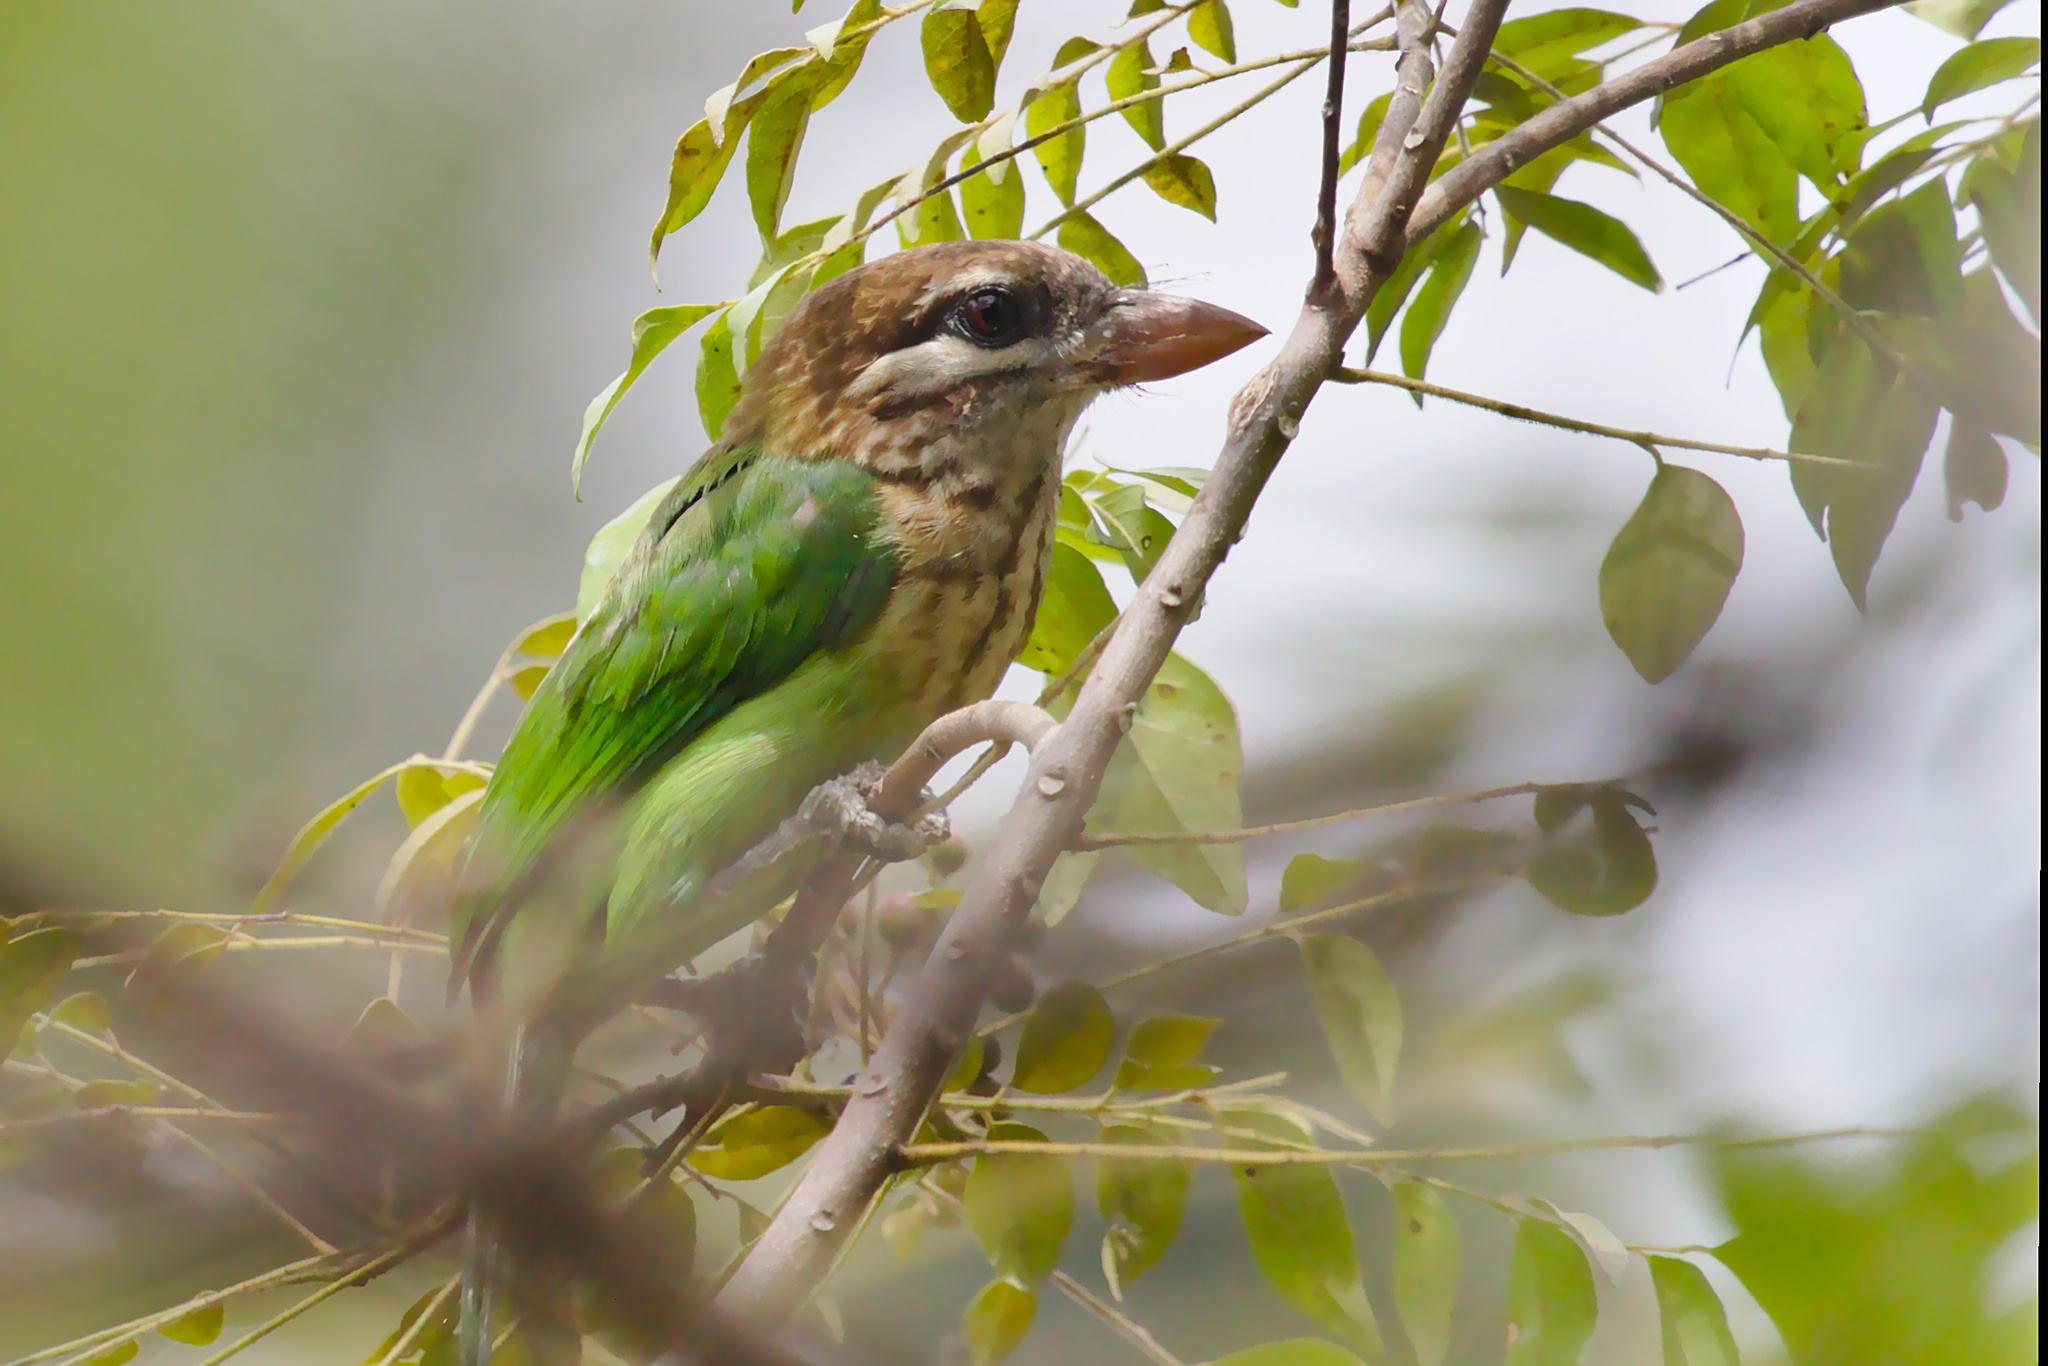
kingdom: Animalia
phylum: Chordata
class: Aves
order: Piciformes
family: Megalaimidae
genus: Psilopogon
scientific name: Psilopogon viridis
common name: White-cheeked barbet
